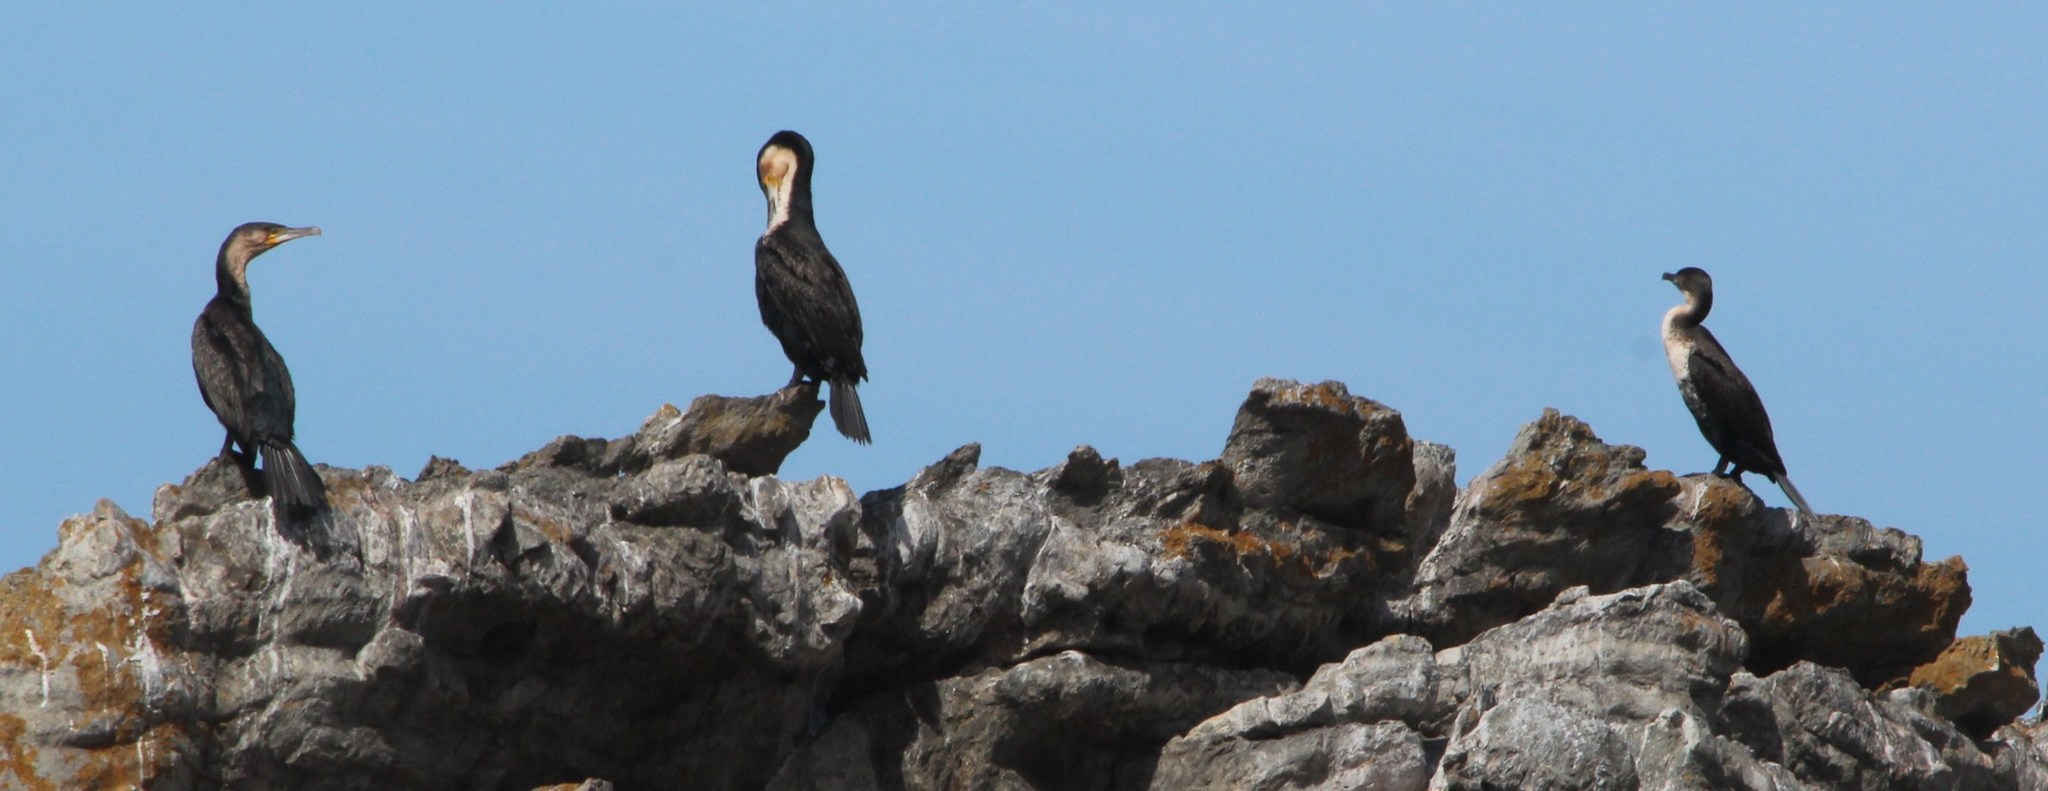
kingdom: Animalia
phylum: Chordata
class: Aves
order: Suliformes
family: Phalacrocoracidae
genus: Phalacrocorax
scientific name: Phalacrocorax carbo
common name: Great cormorant
